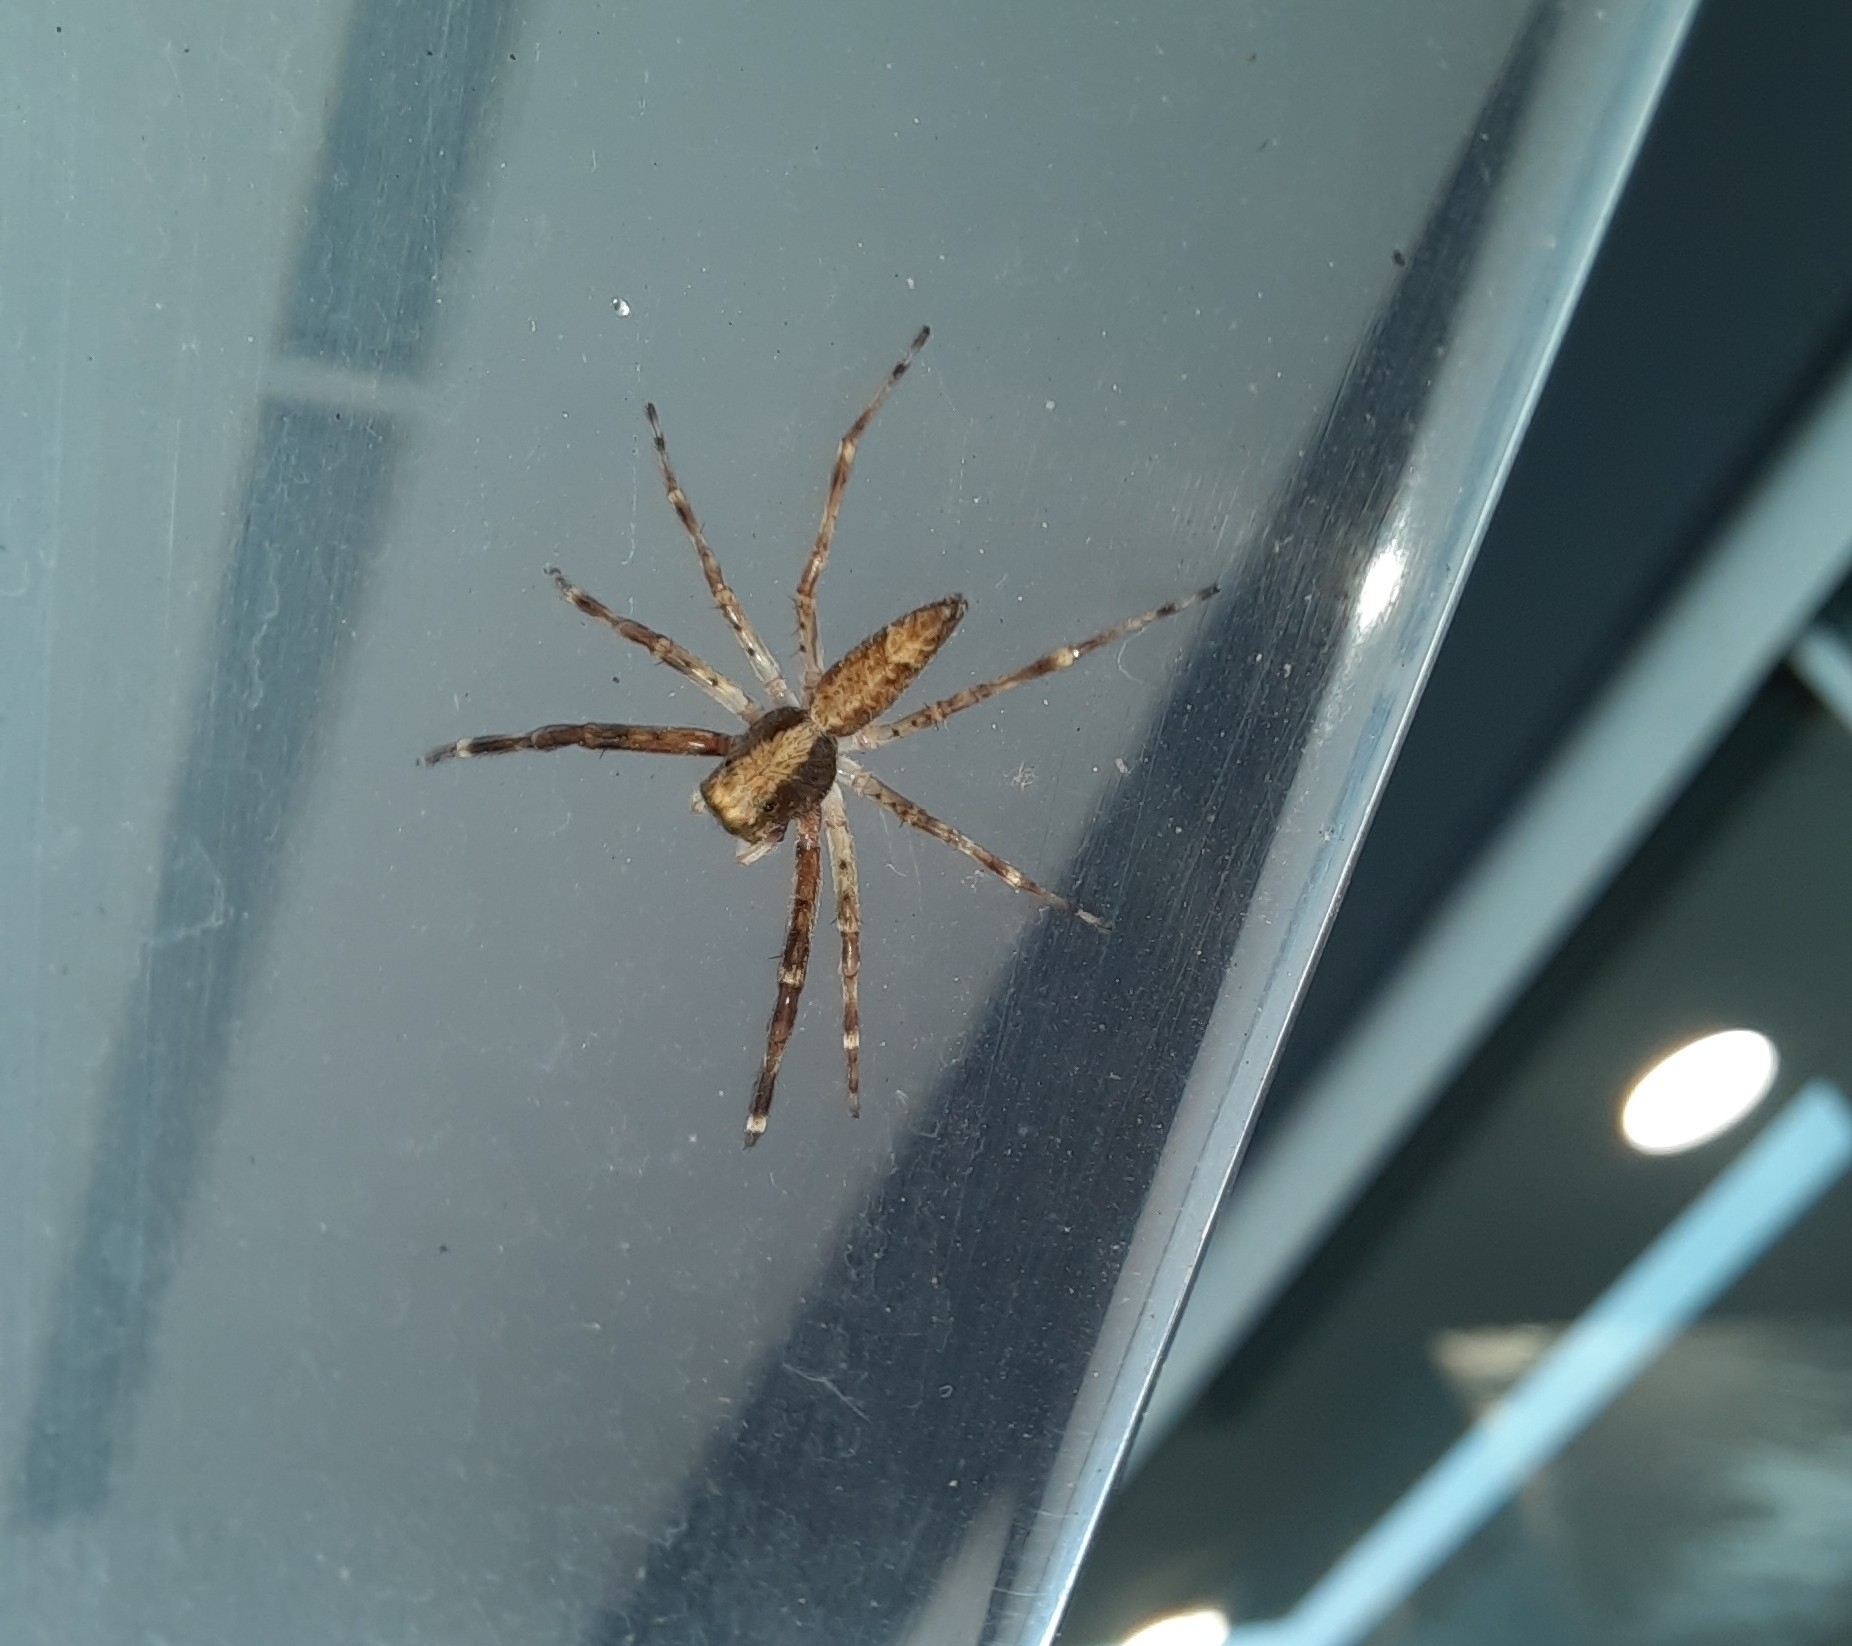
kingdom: Animalia
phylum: Arthropoda
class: Arachnida
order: Araneae
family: Salticidae
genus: Helpis
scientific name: Helpis minitabunda
